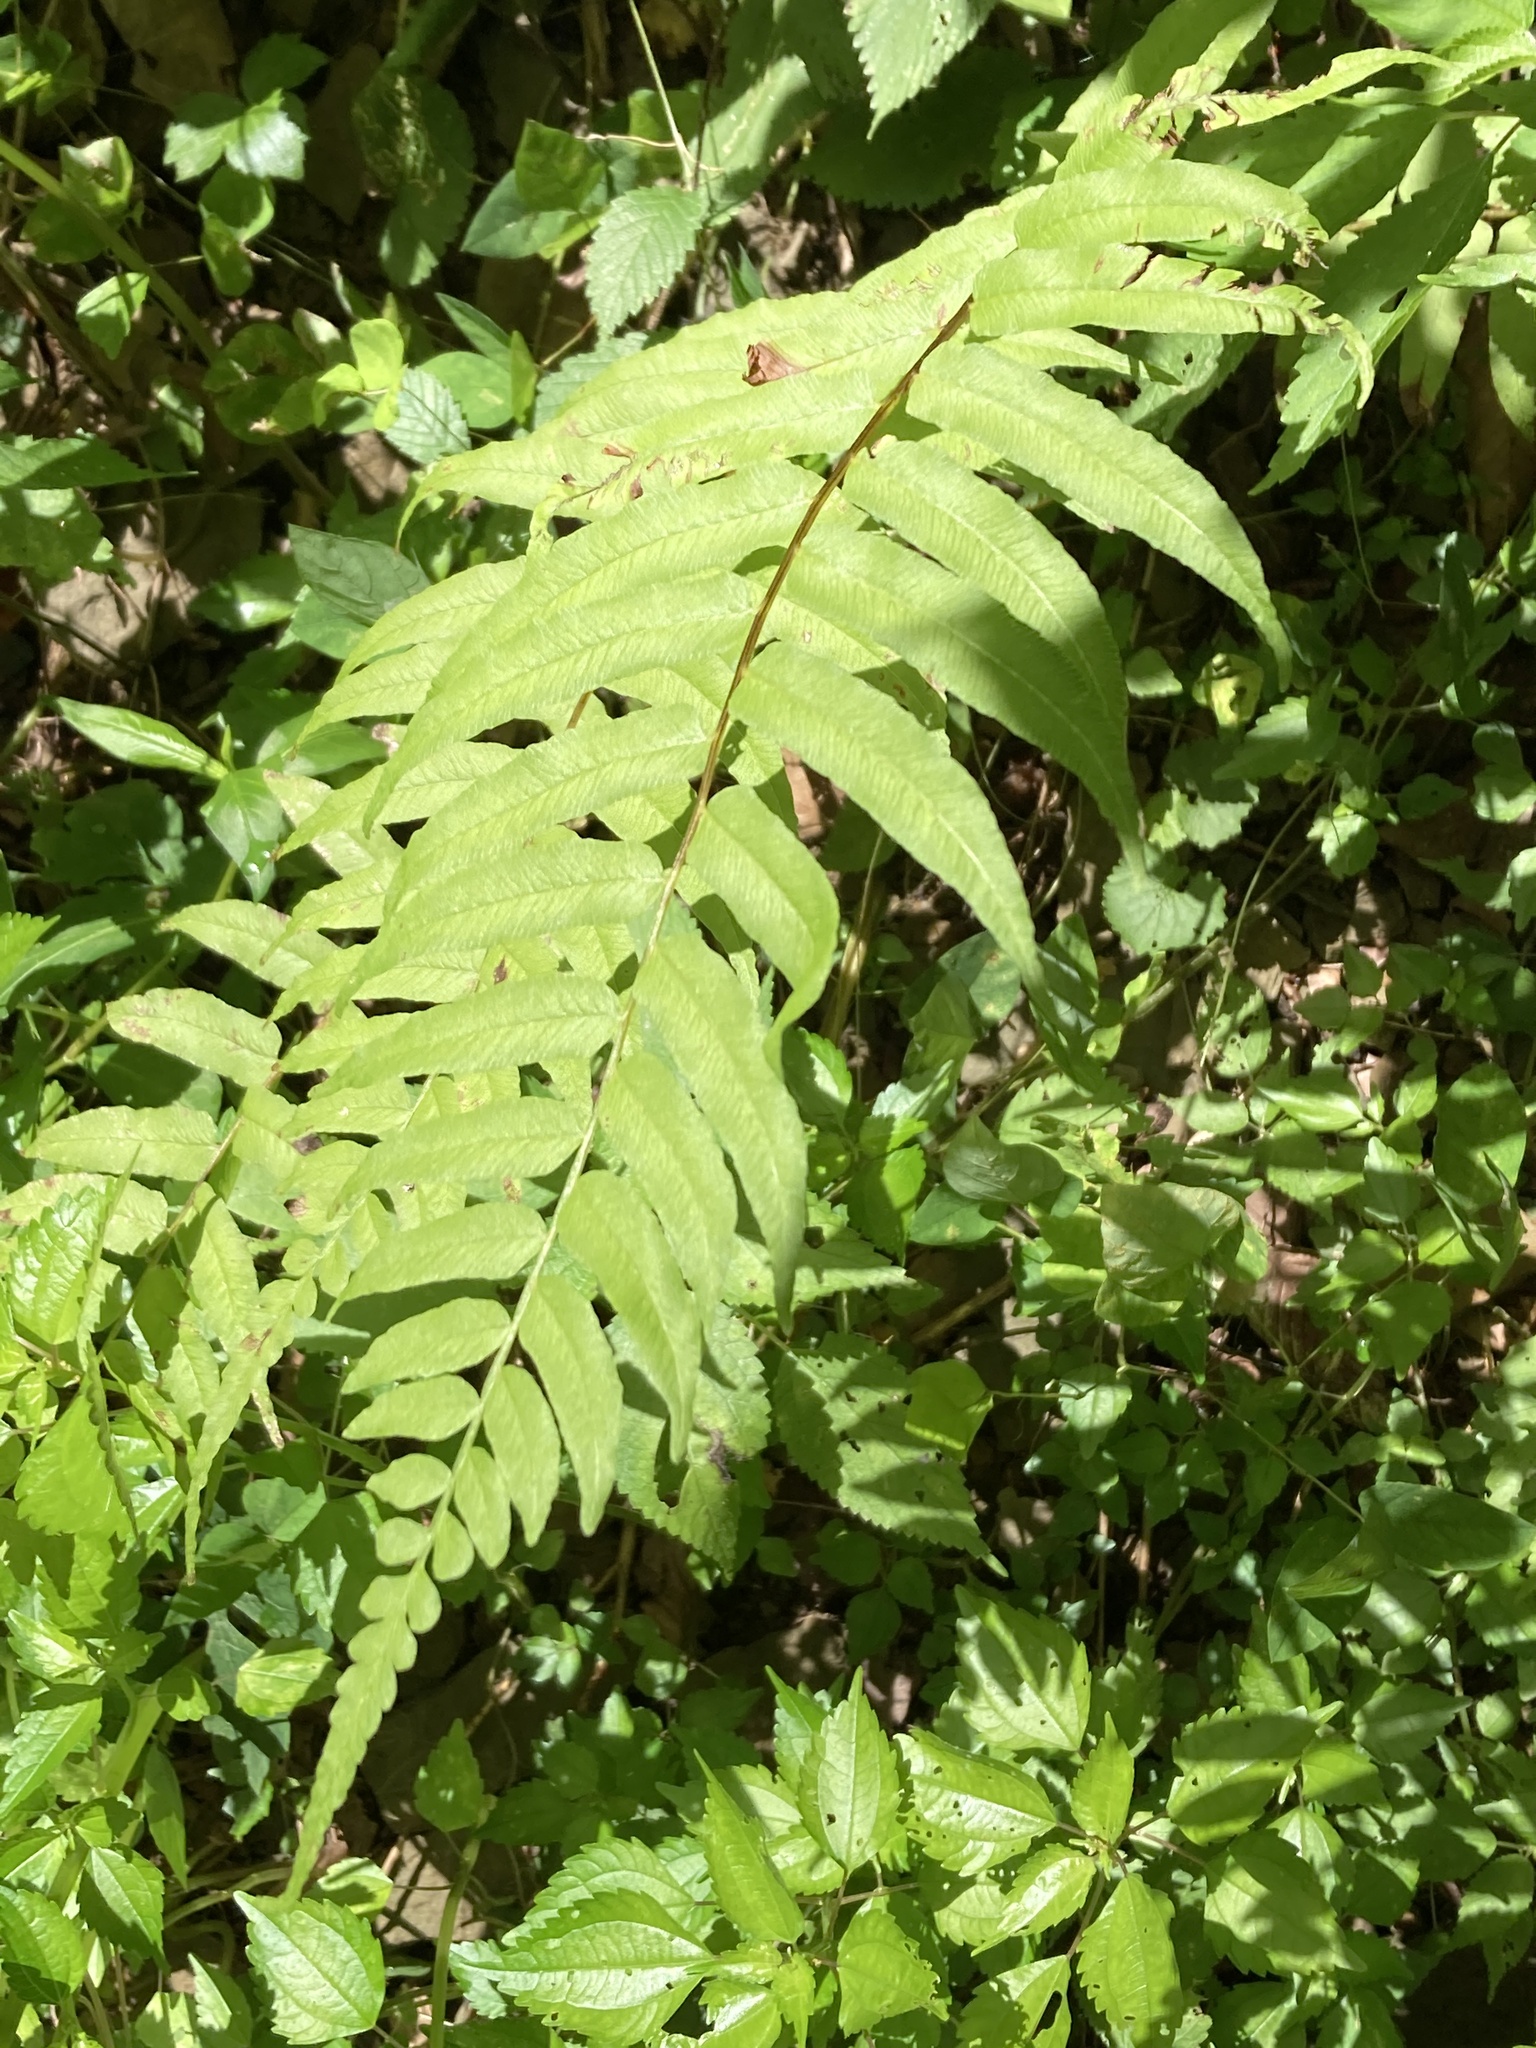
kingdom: Plantae
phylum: Tracheophyta
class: Polypodiopsida
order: Polypodiales
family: Diplaziopsidaceae
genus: Homalosorus
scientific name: Homalosorus pycnocarpos
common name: Glade fern
